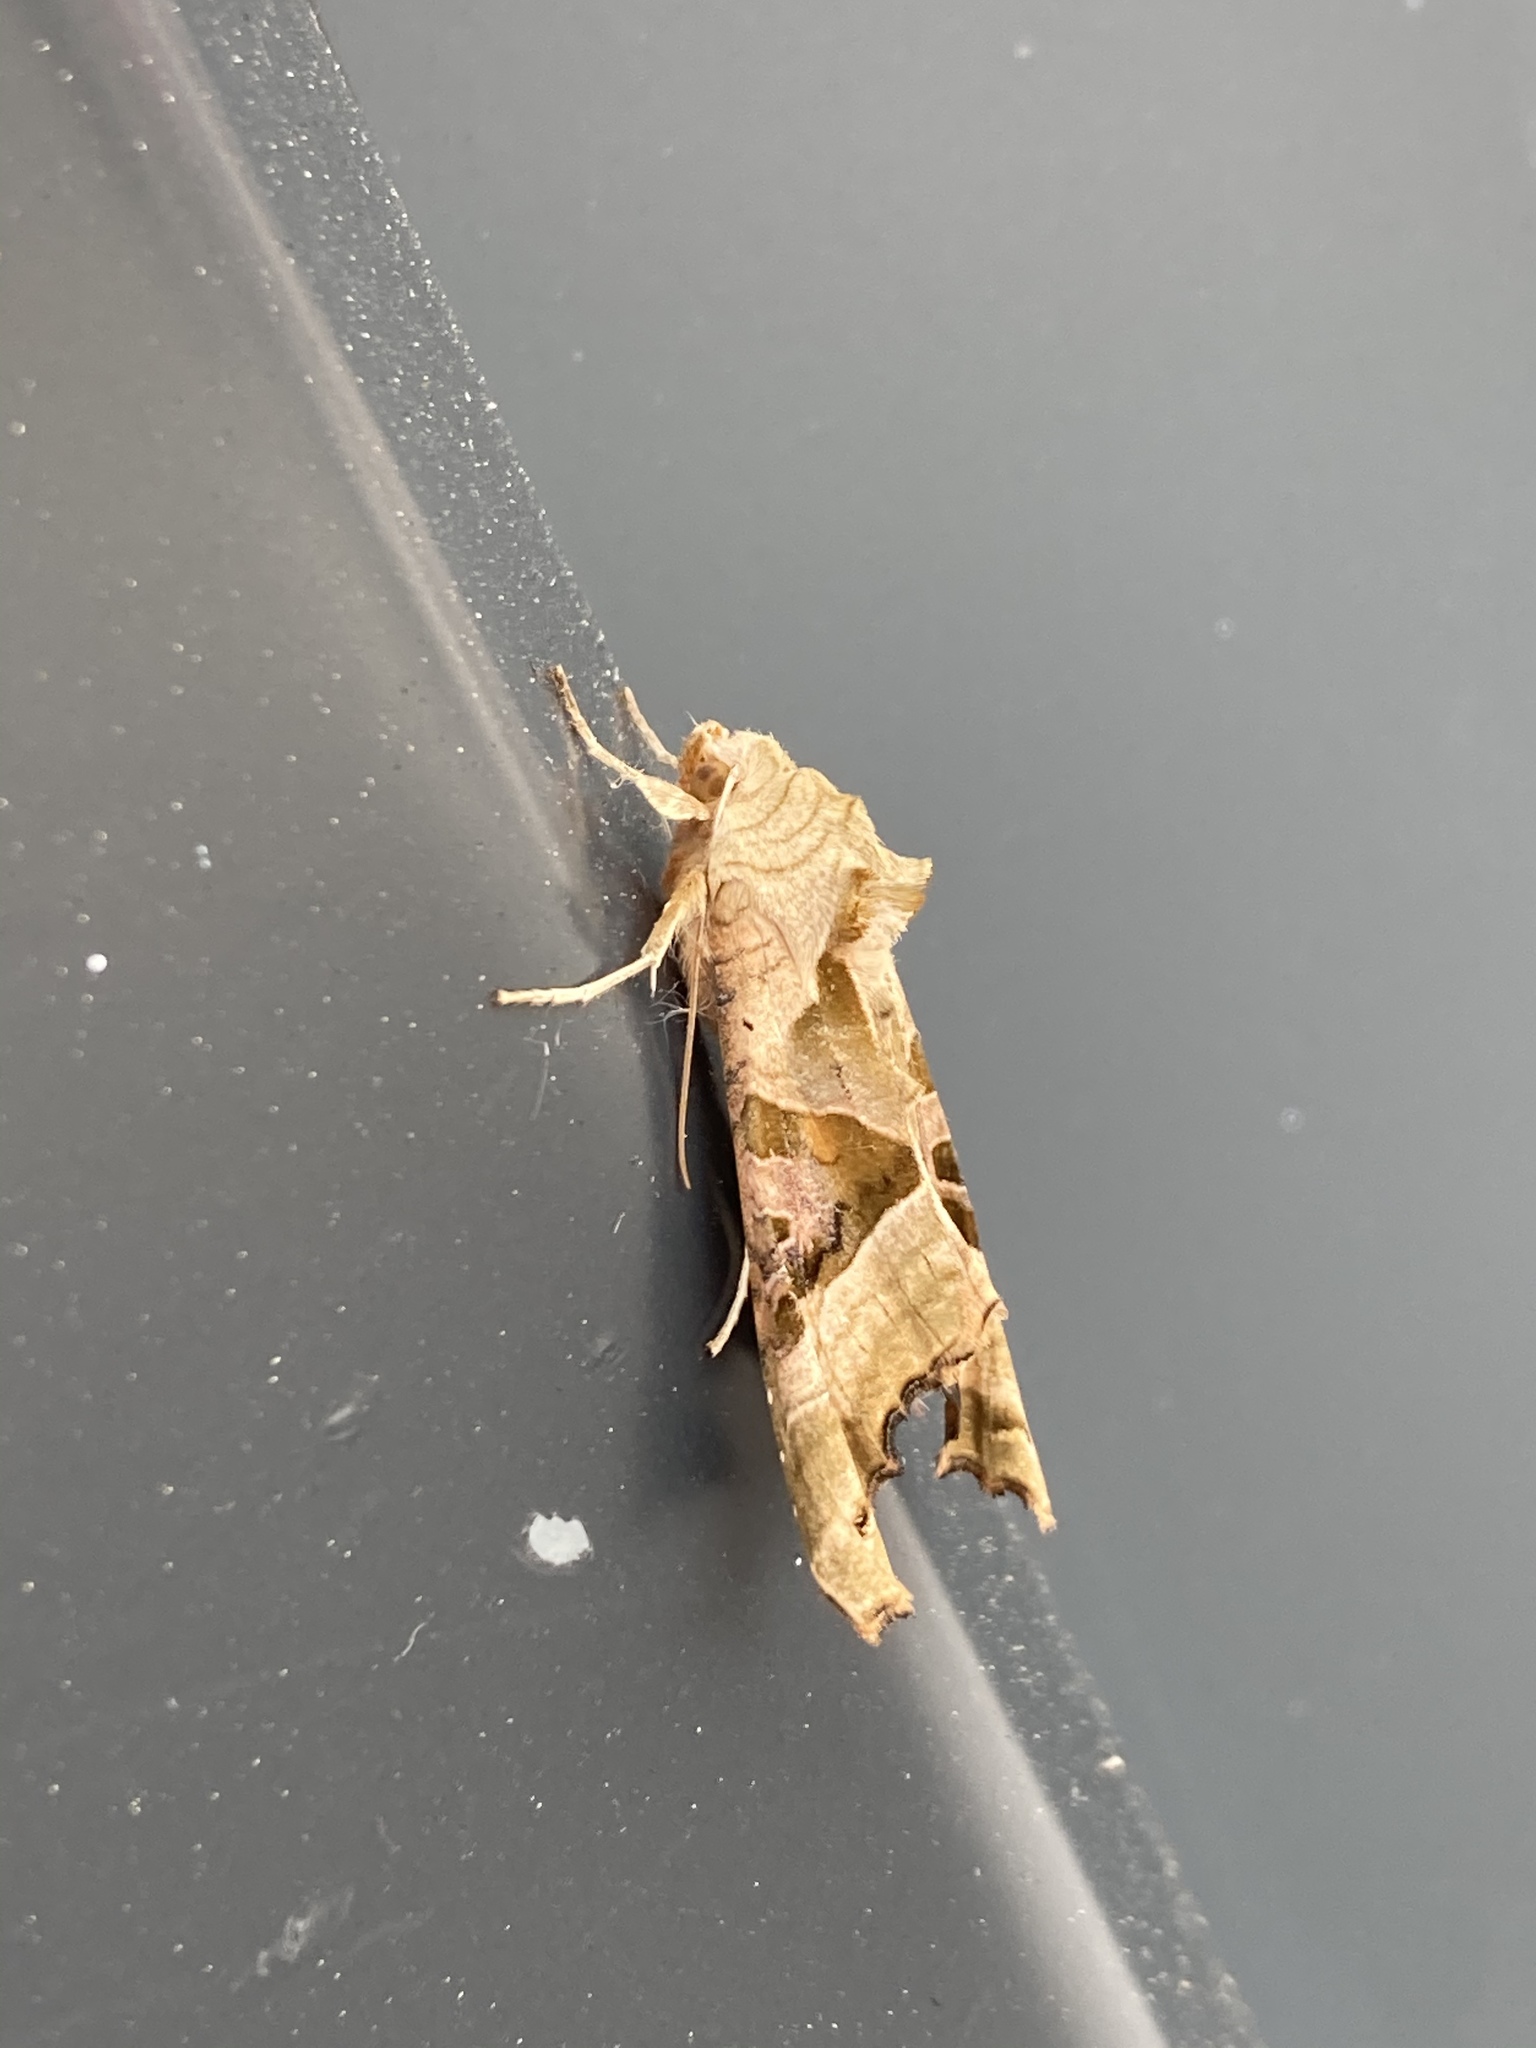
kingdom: Animalia
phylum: Arthropoda
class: Insecta
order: Lepidoptera
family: Noctuidae
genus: Phlogophora
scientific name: Phlogophora meticulosa
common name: Angle shades
